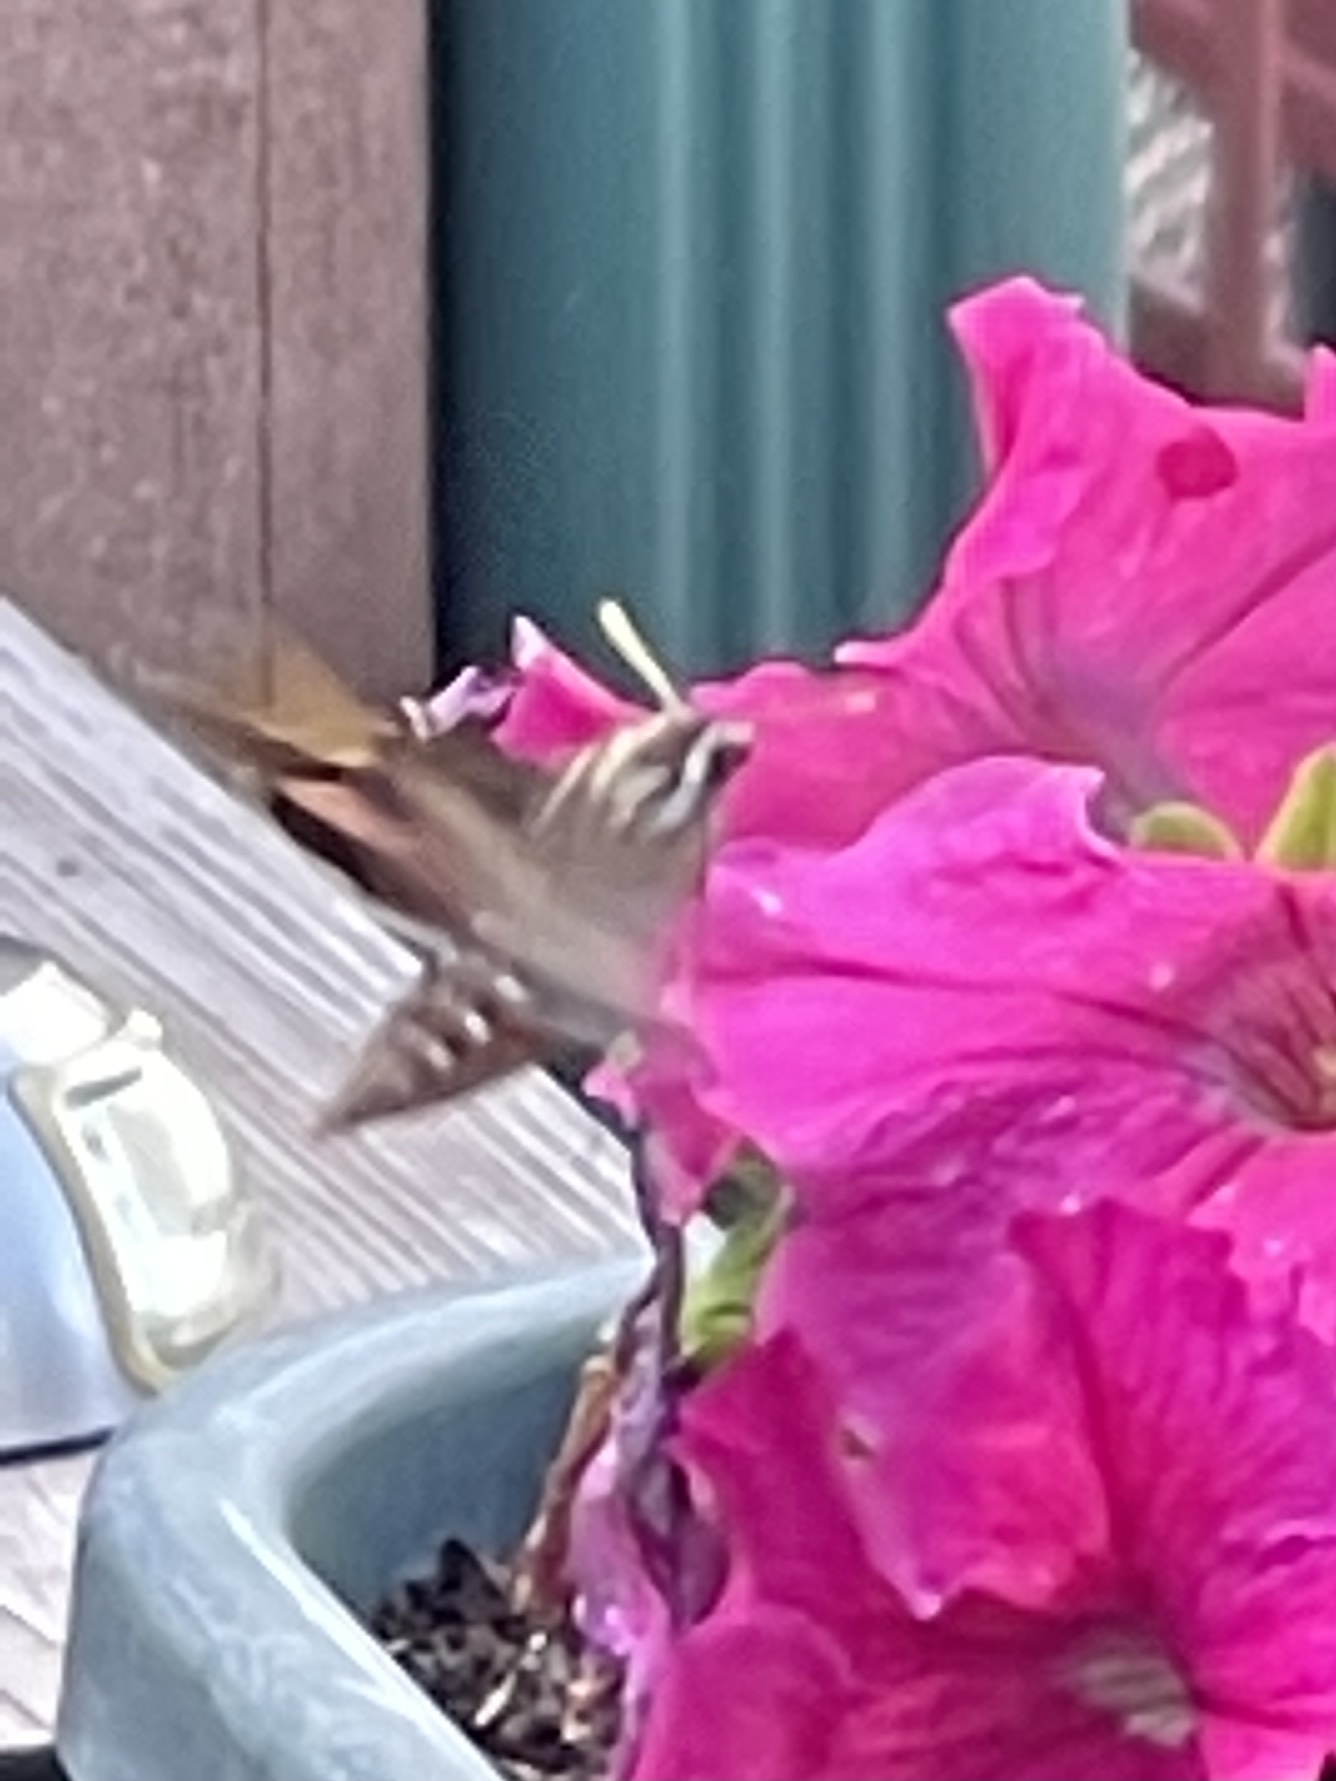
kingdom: Animalia
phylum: Arthropoda
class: Insecta
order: Lepidoptera
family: Sphingidae
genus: Hyles
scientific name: Hyles lineata
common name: White-lined sphinx
